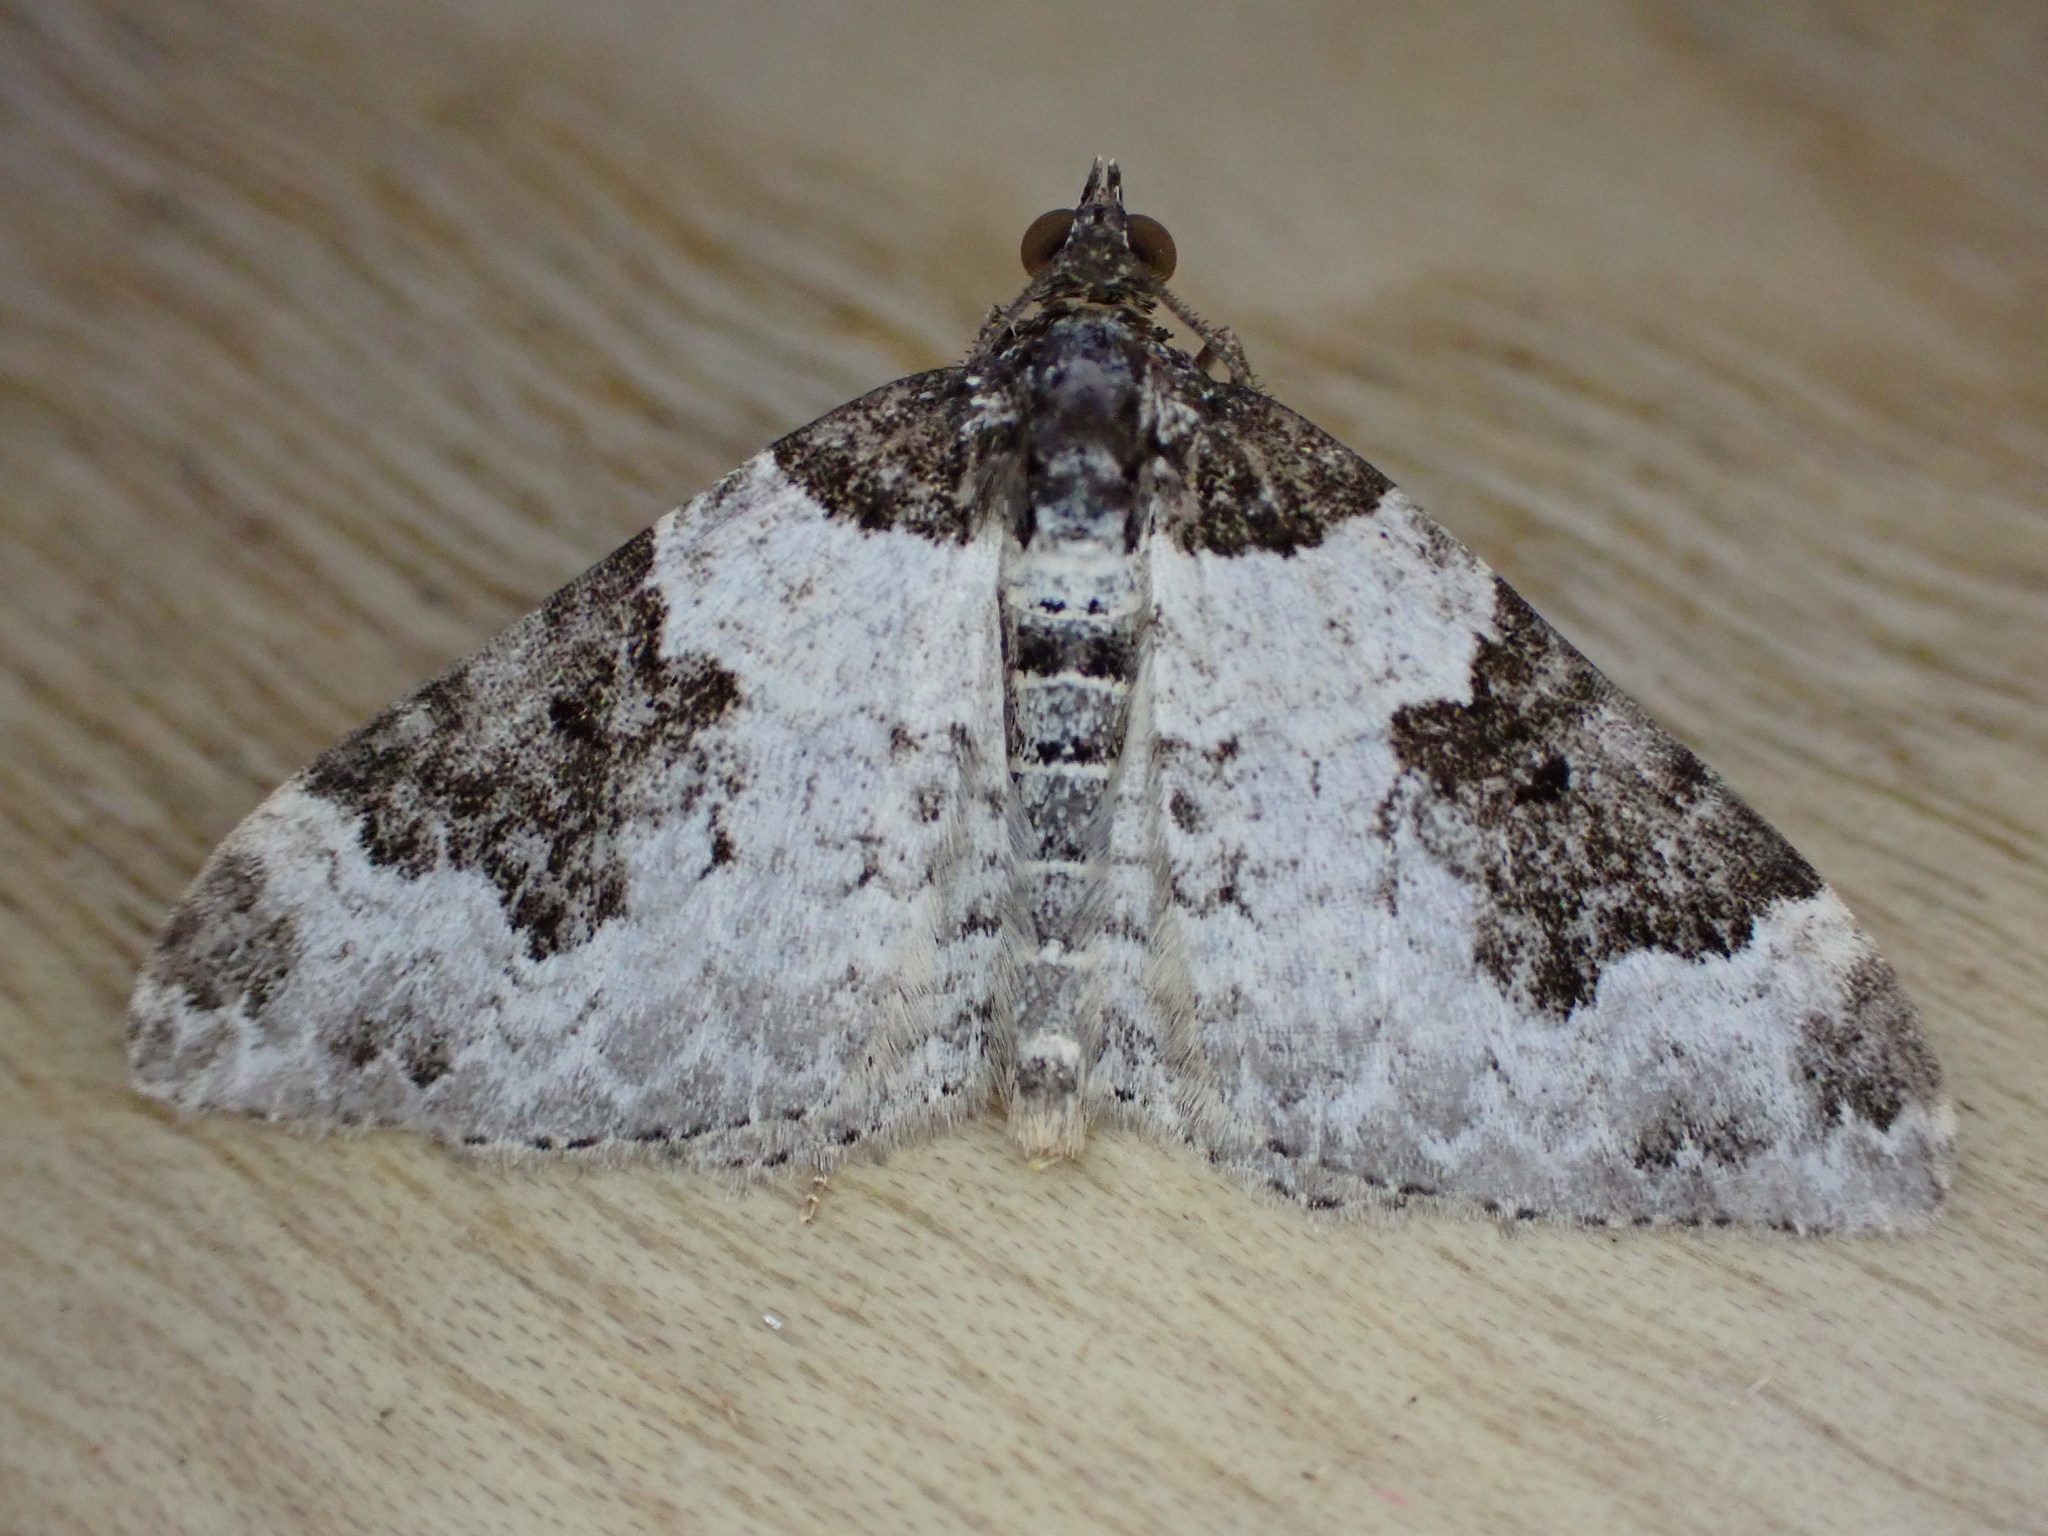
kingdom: Animalia
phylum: Arthropoda
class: Insecta
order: Lepidoptera
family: Geometridae
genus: Xanthorhoe
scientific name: Xanthorhoe fluctuata
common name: Garden carpet
